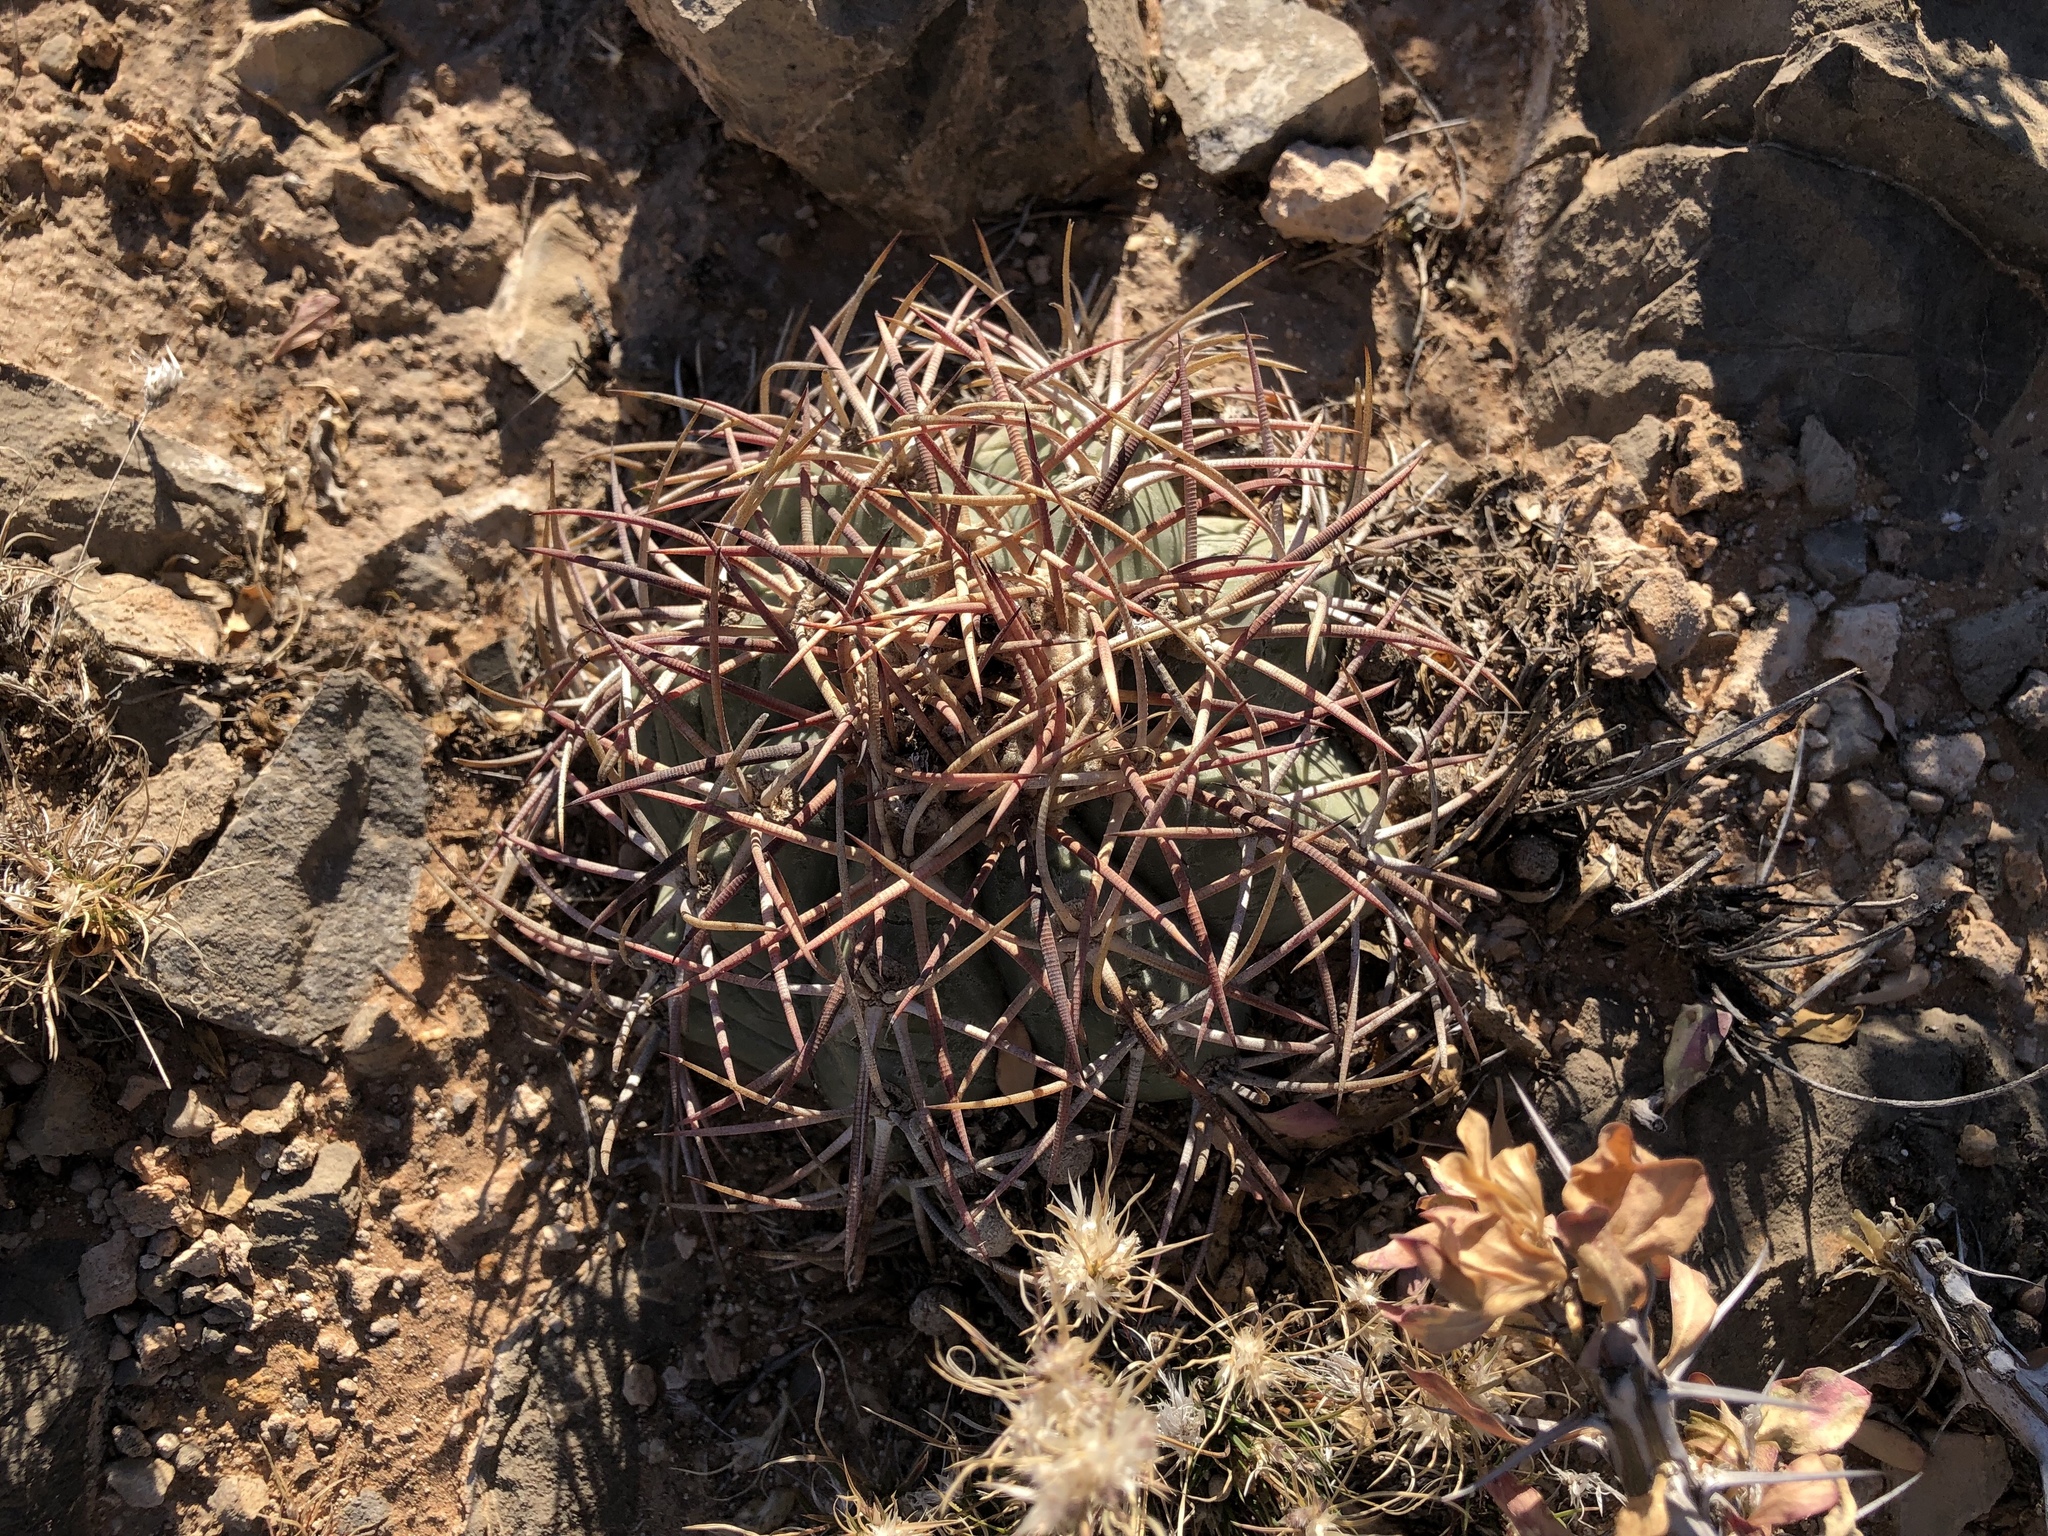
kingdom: Plantae
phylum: Tracheophyta
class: Magnoliopsida
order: Caryophyllales
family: Cactaceae
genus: Echinocactus
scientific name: Echinocactus horizonthalonius
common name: Devilshead
